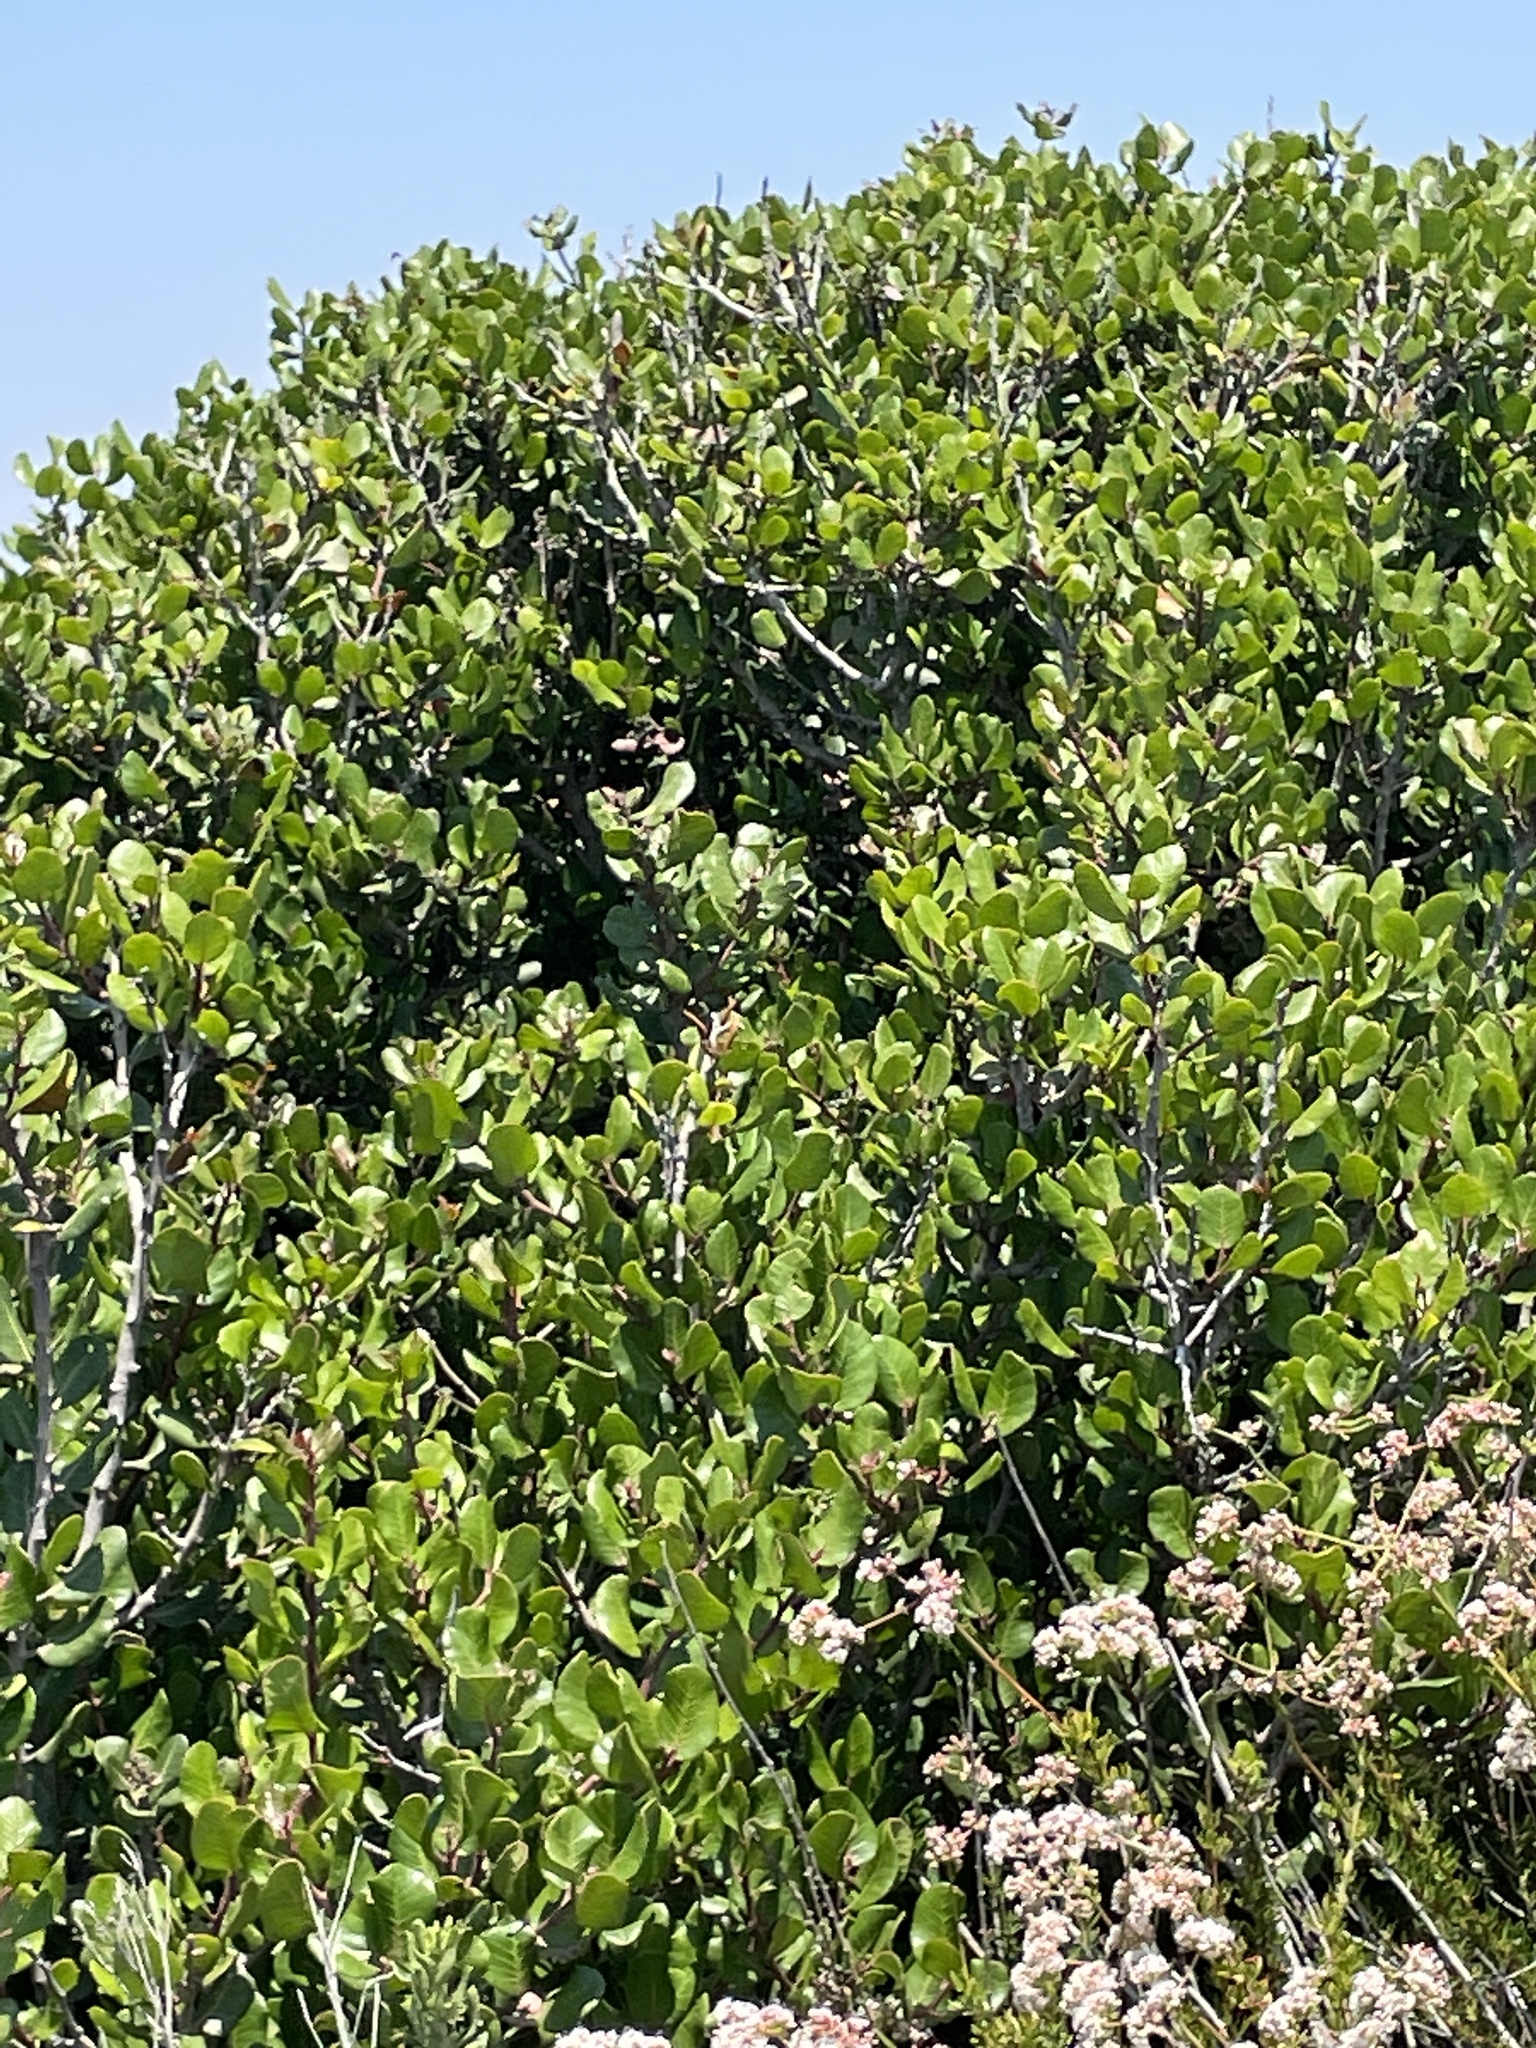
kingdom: Plantae
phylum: Tracheophyta
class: Magnoliopsida
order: Sapindales
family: Anacardiaceae
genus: Rhus
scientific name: Rhus integrifolia
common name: Lemonade sumac
